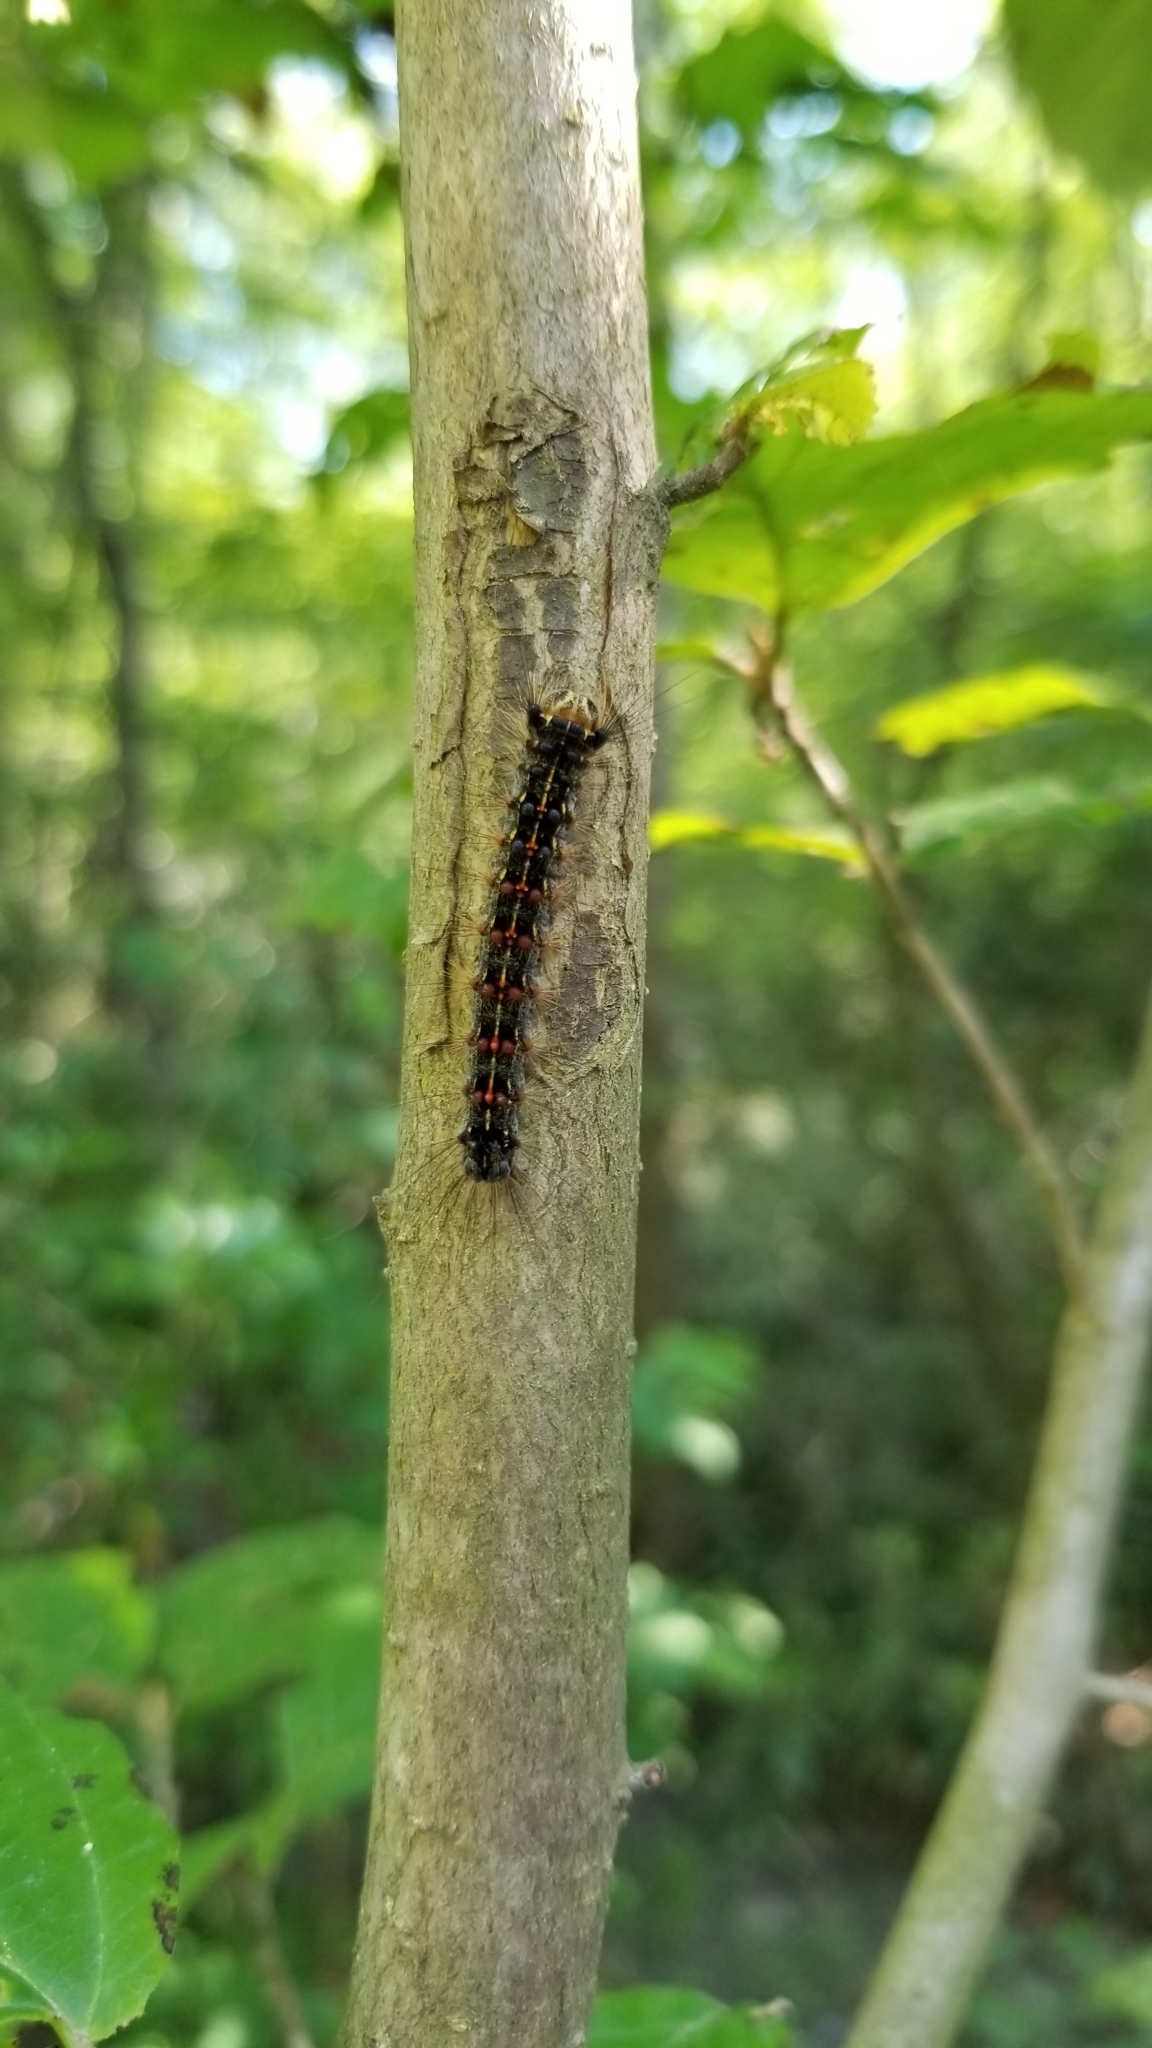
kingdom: Animalia
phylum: Arthropoda
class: Insecta
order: Lepidoptera
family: Erebidae
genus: Lymantria
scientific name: Lymantria dispar
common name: Gypsy moth
